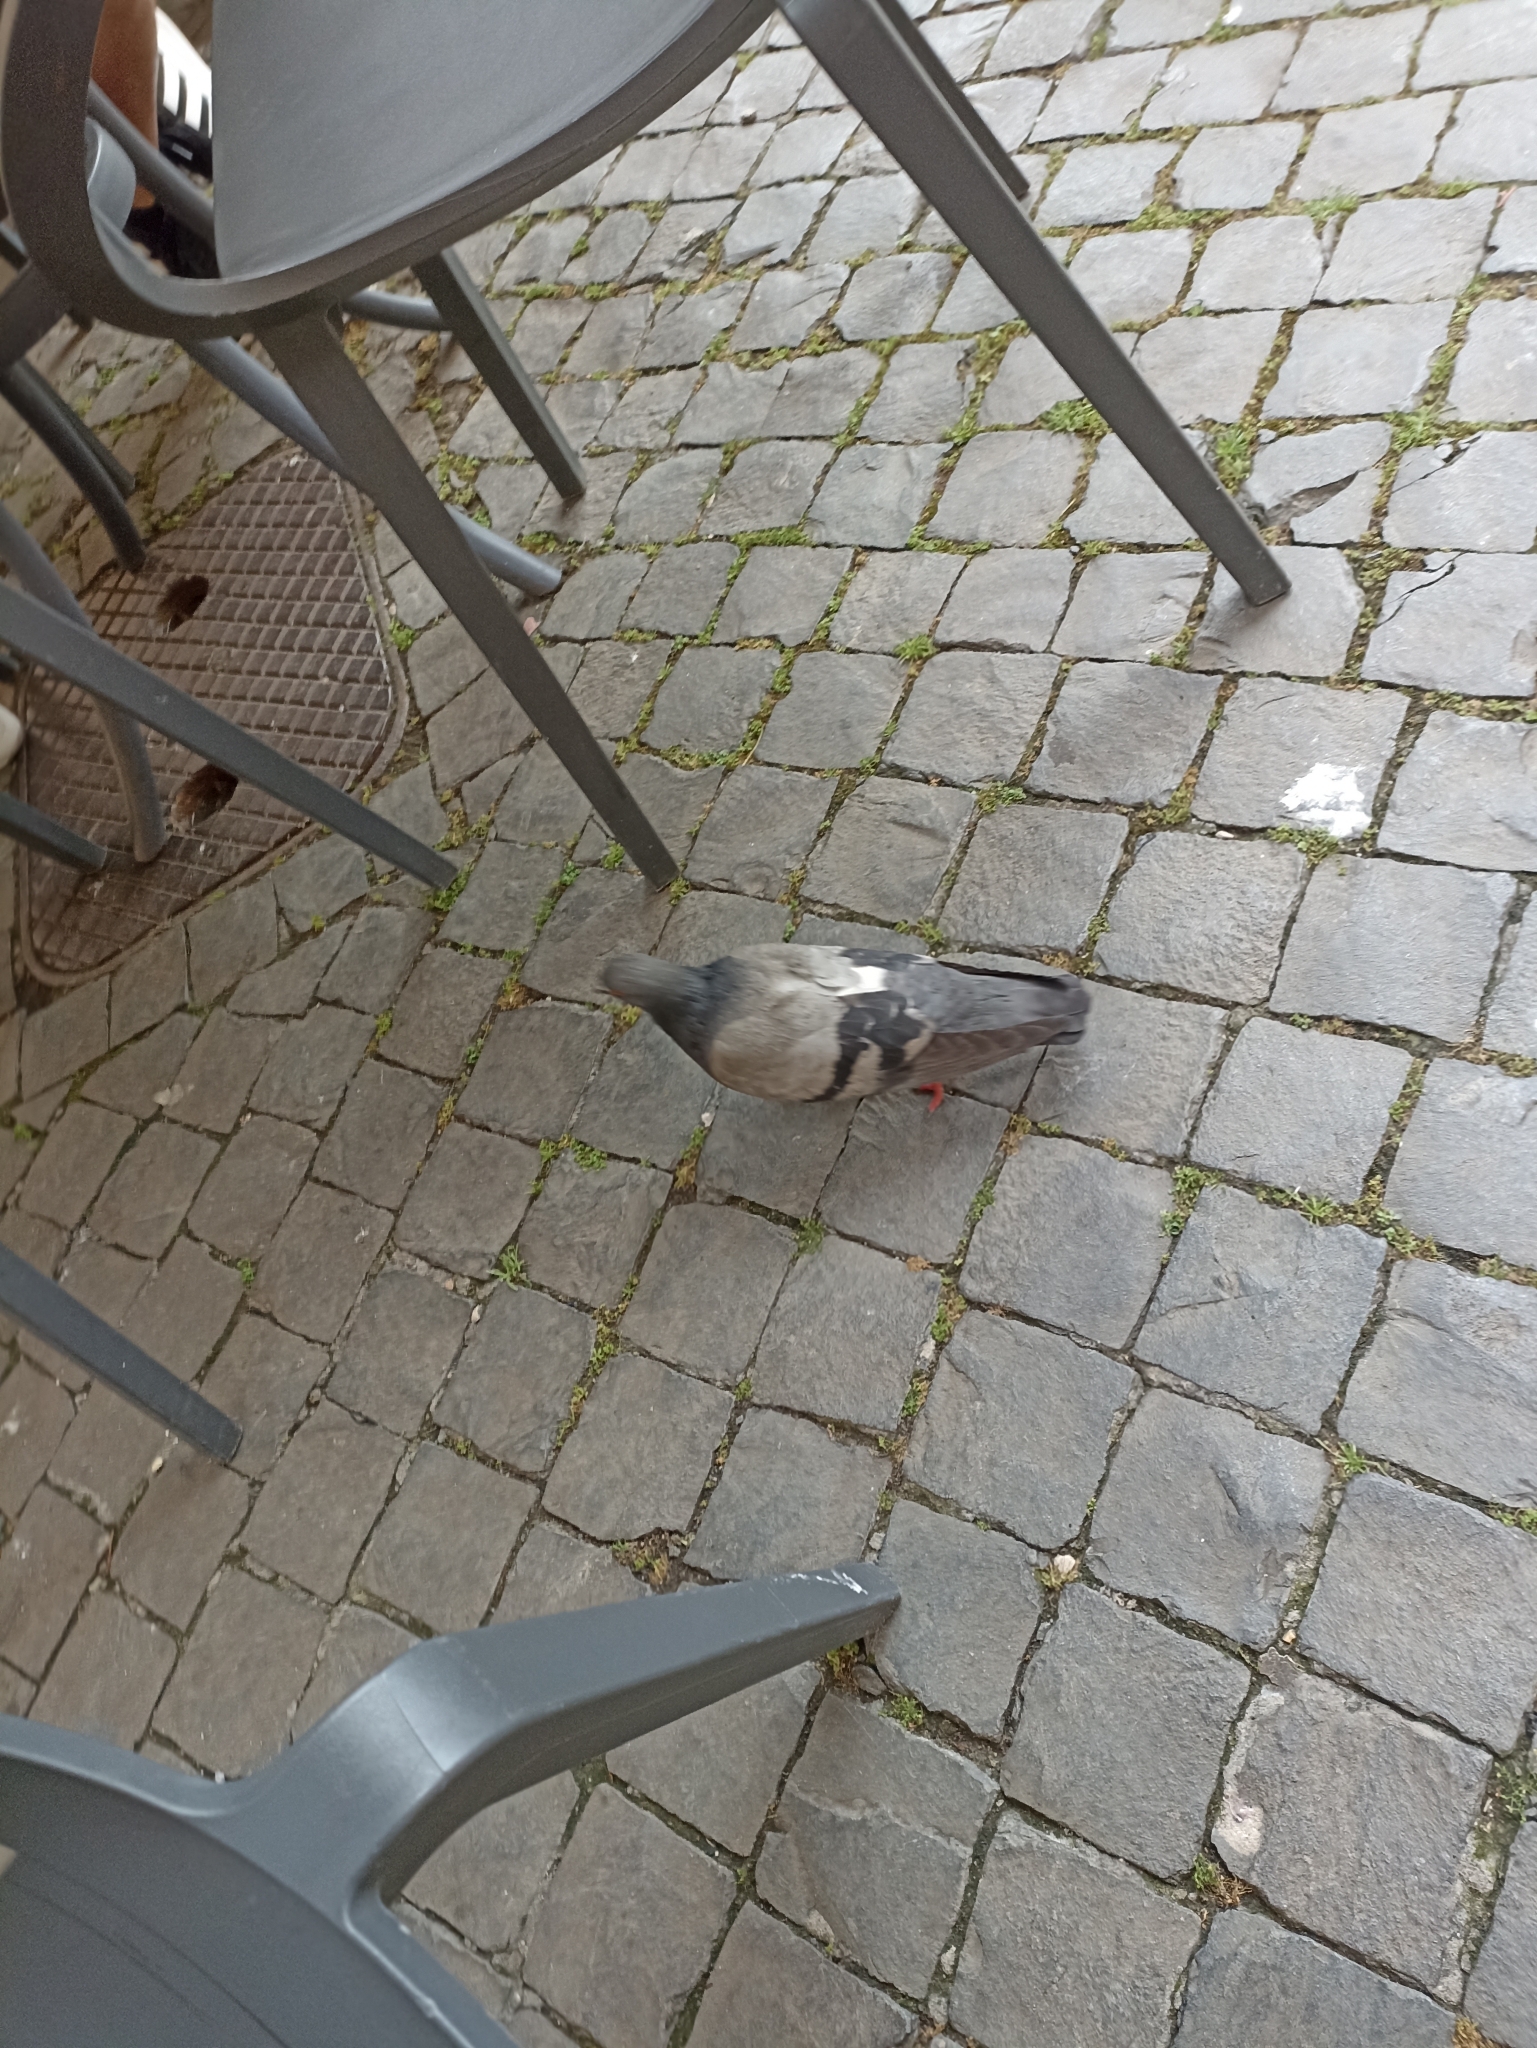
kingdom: Animalia
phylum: Chordata
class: Aves
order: Columbiformes
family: Columbidae
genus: Columba
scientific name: Columba livia
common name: Rock pigeon
